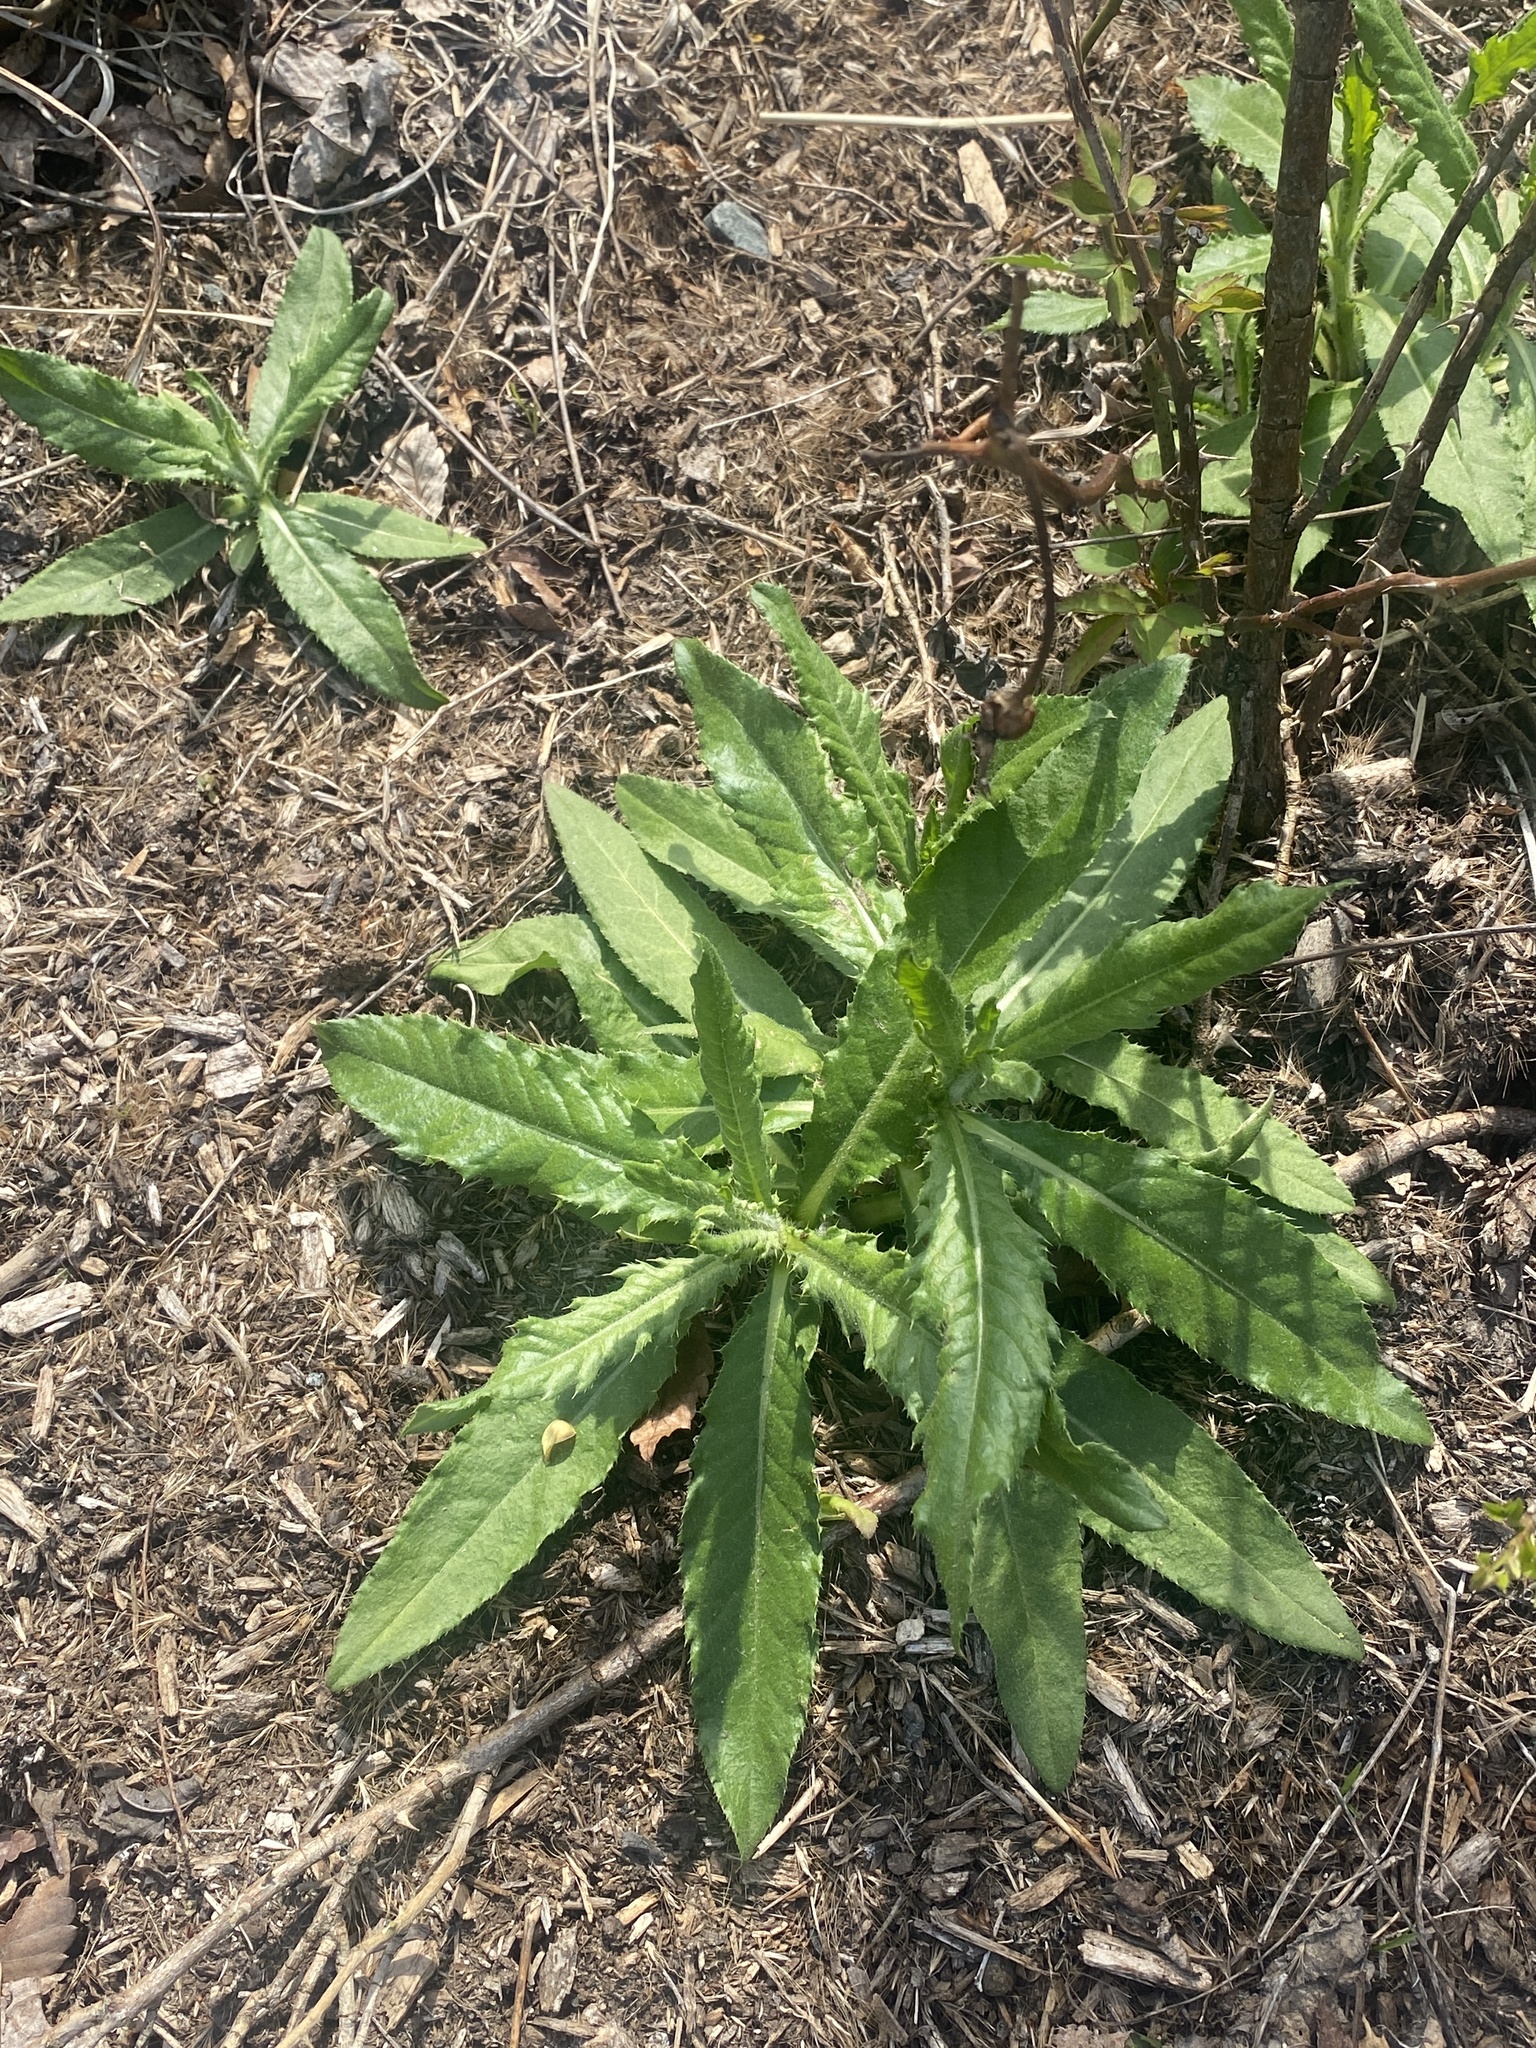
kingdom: Plantae
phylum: Tracheophyta
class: Magnoliopsida
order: Asterales
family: Asteraceae
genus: Cirsium
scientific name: Cirsium arvense
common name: Creeping thistle
